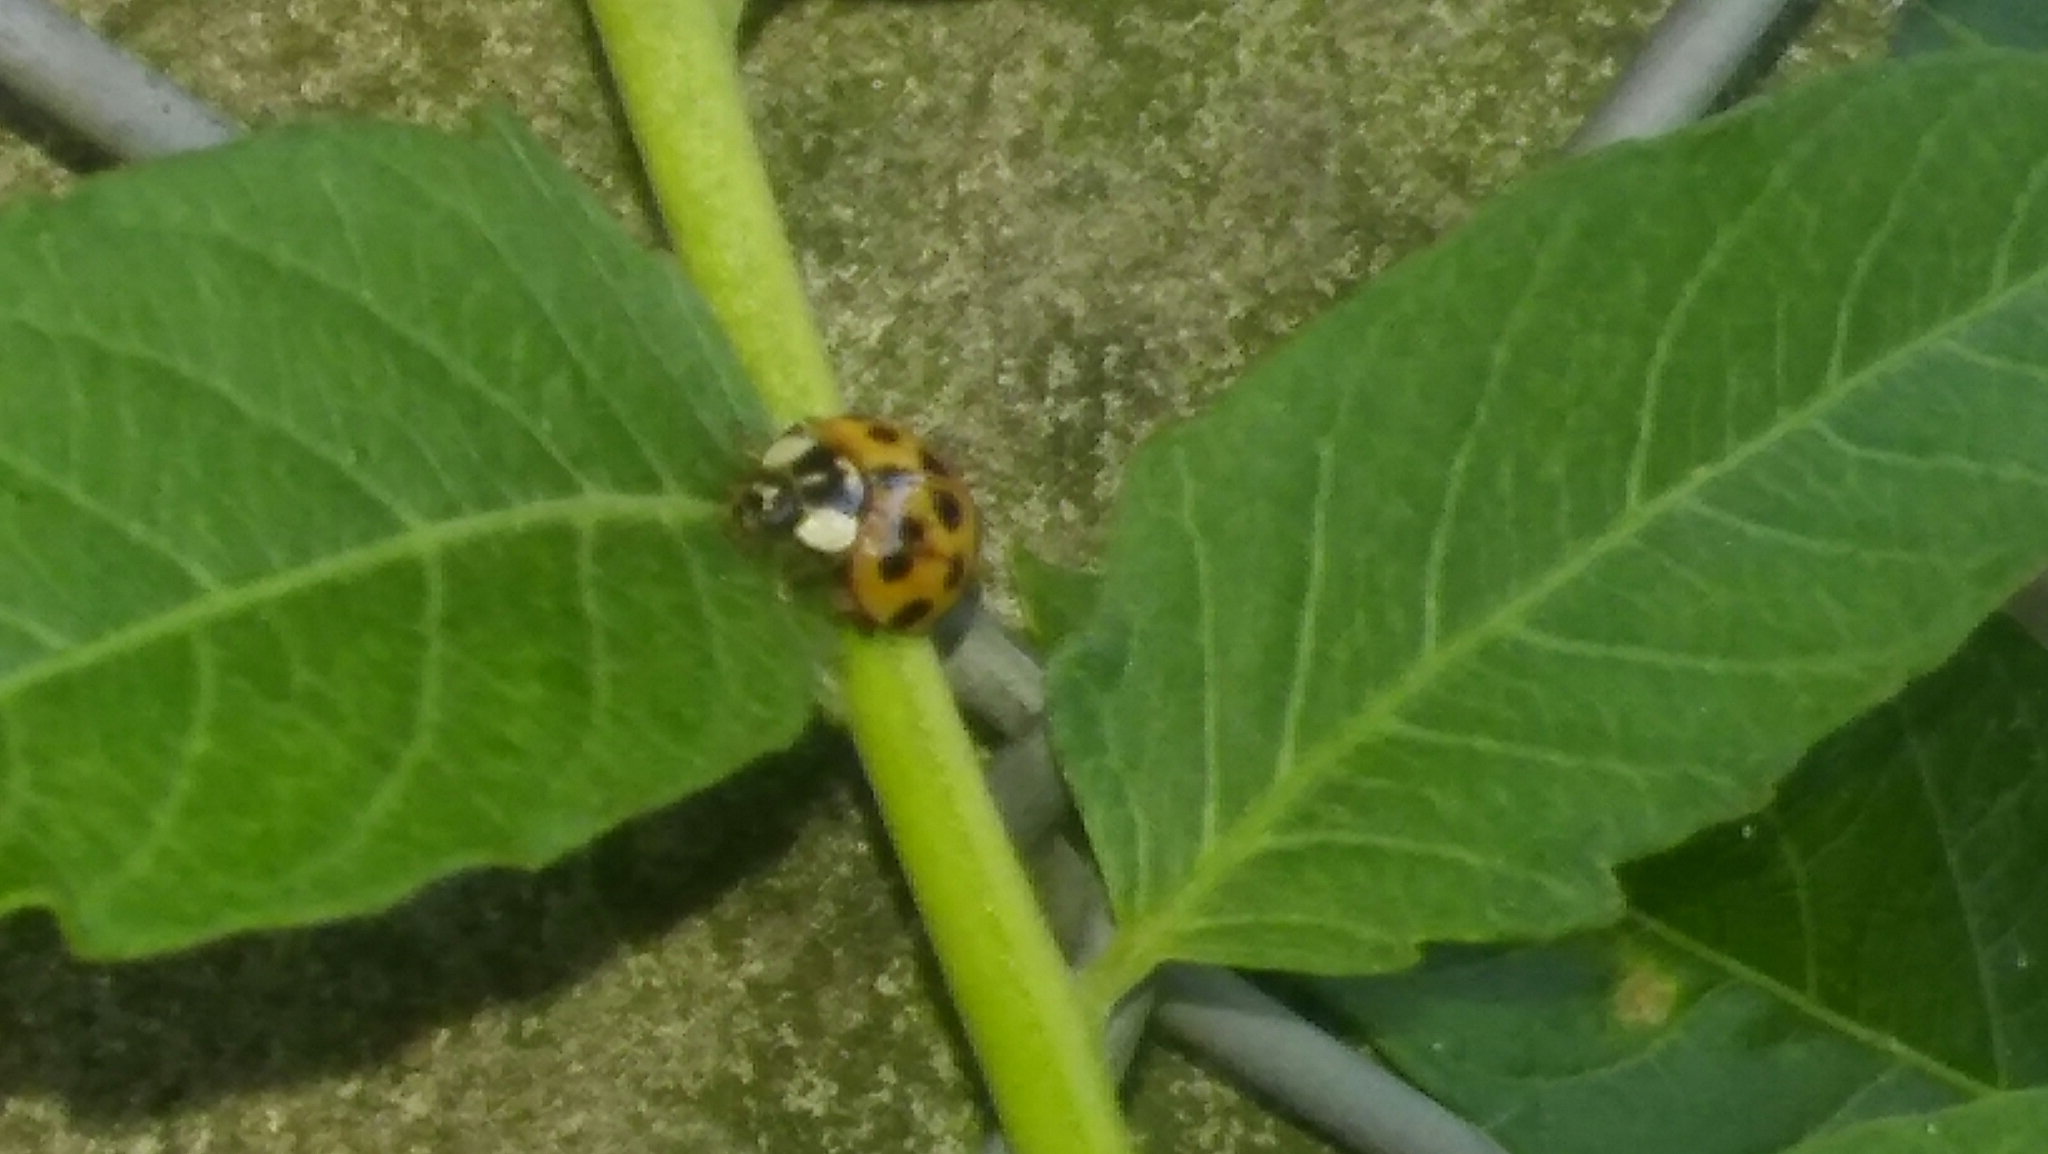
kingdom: Animalia
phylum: Arthropoda
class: Insecta
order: Coleoptera
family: Coccinellidae
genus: Harmonia
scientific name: Harmonia axyridis
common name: Harlequin ladybird
